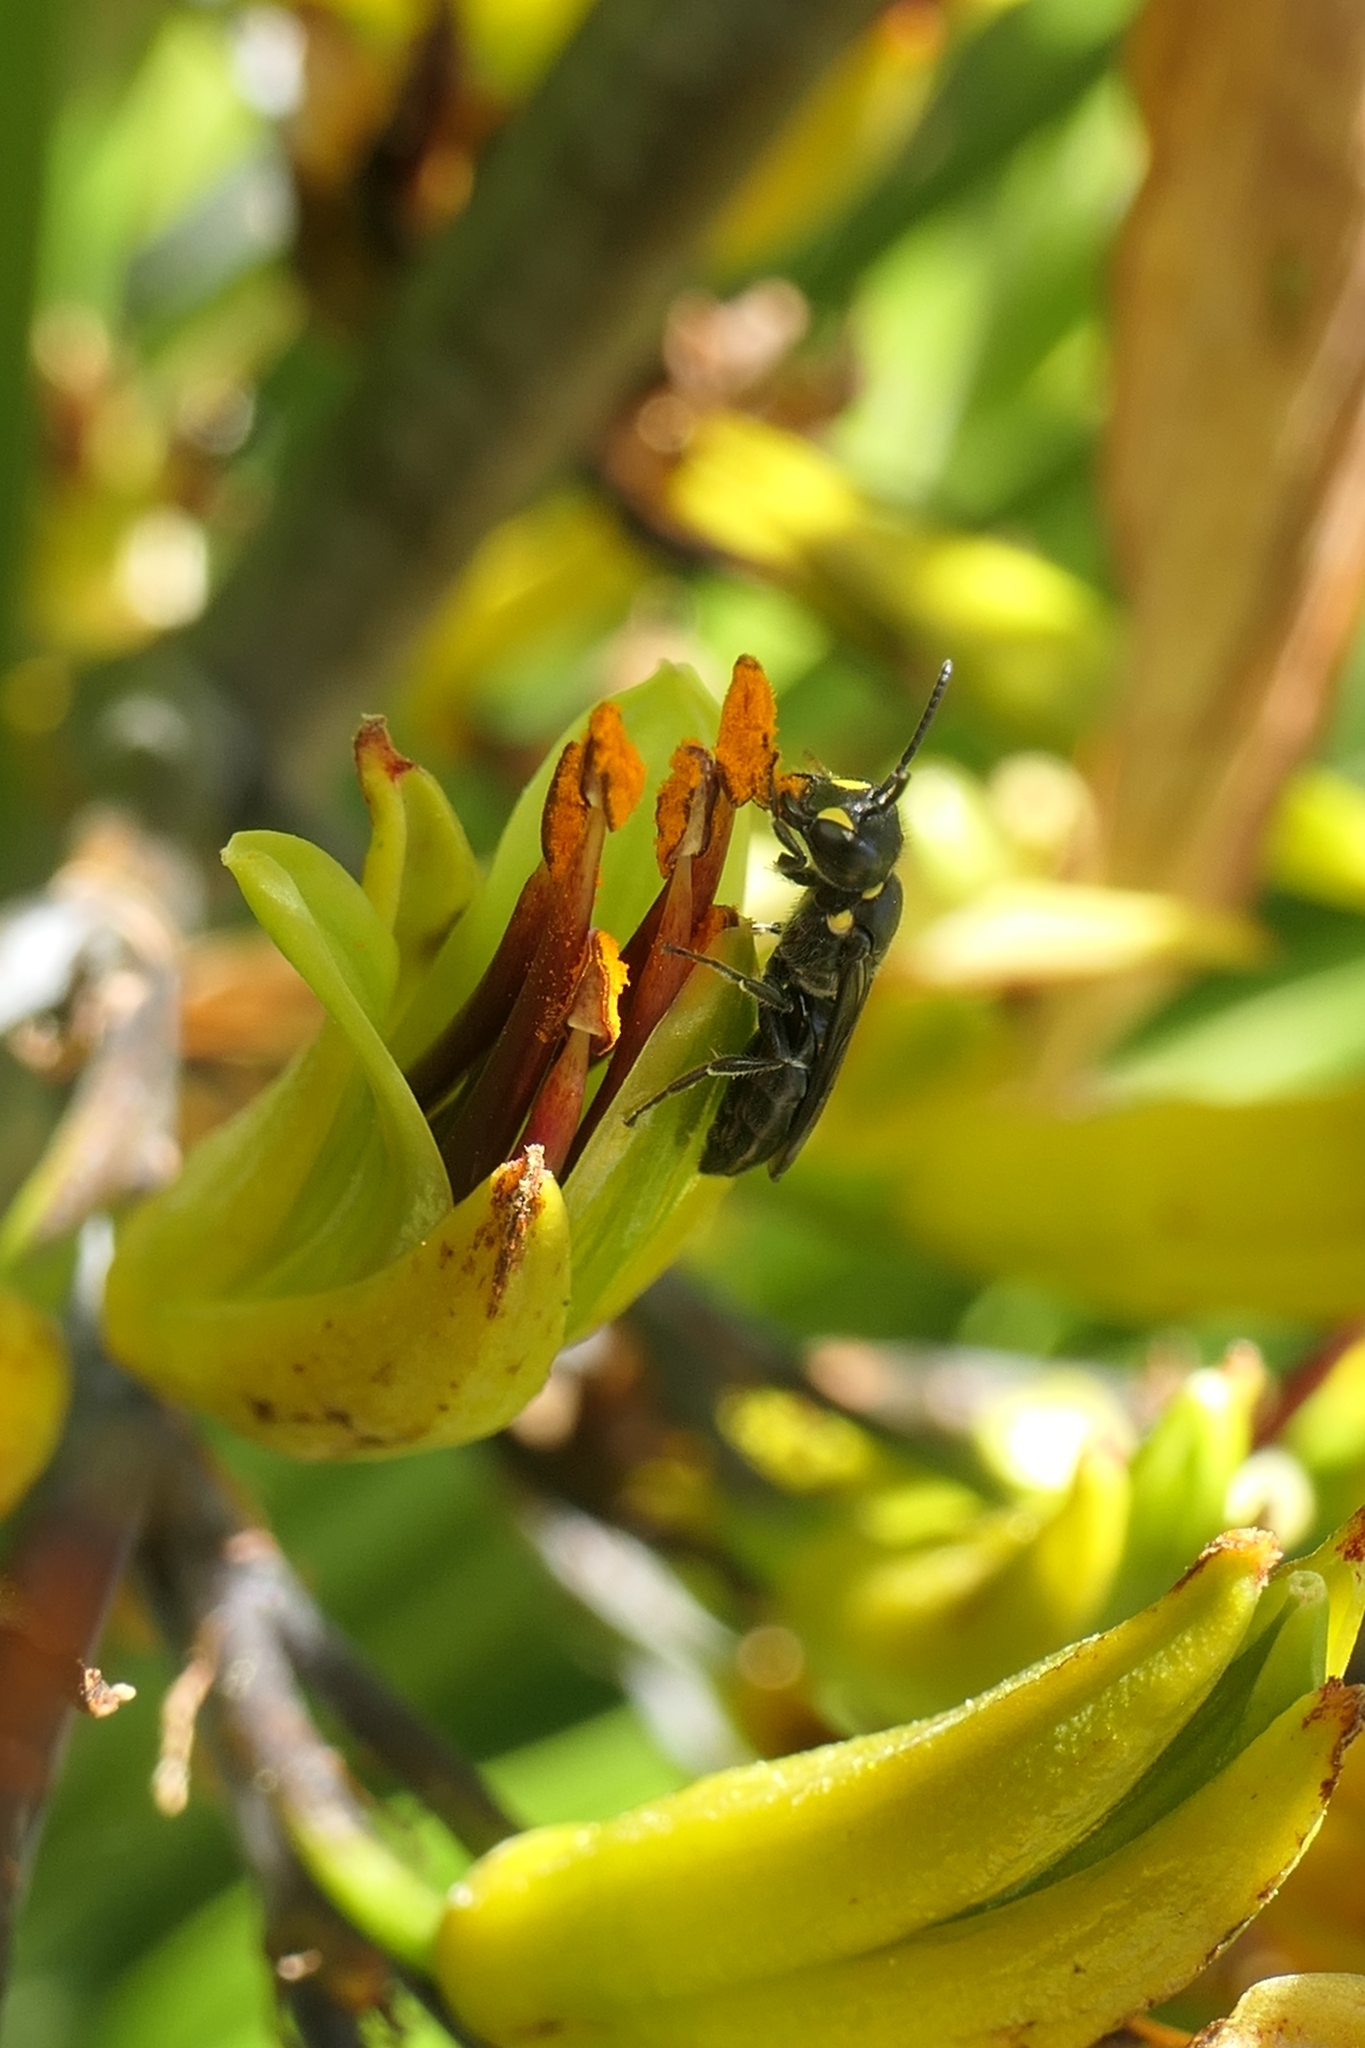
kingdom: Animalia
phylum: Arthropoda
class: Insecta
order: Hymenoptera
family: Colletidae
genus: Hylaeus
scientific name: Hylaeus relegatus
